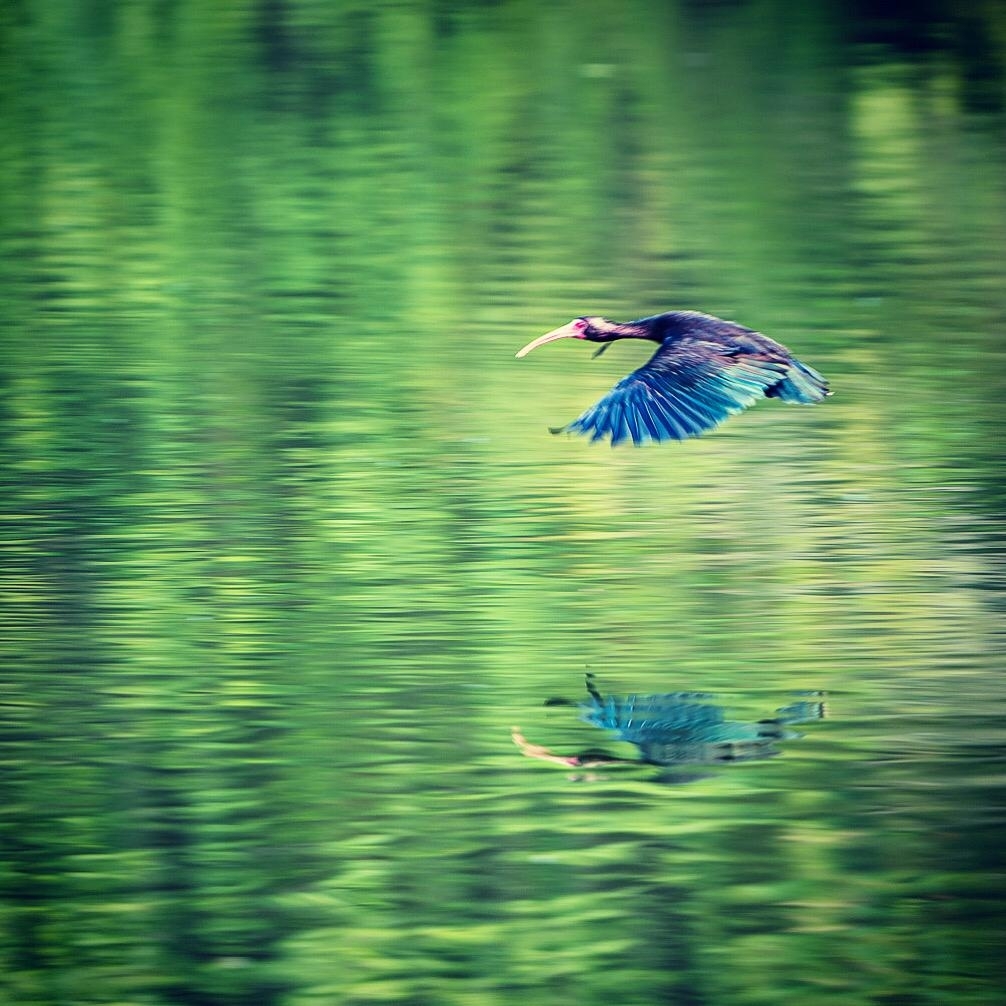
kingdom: Animalia
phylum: Chordata
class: Aves
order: Pelecaniformes
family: Threskiornithidae
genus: Phimosus
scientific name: Phimosus infuscatus
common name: Bare-faced ibis
